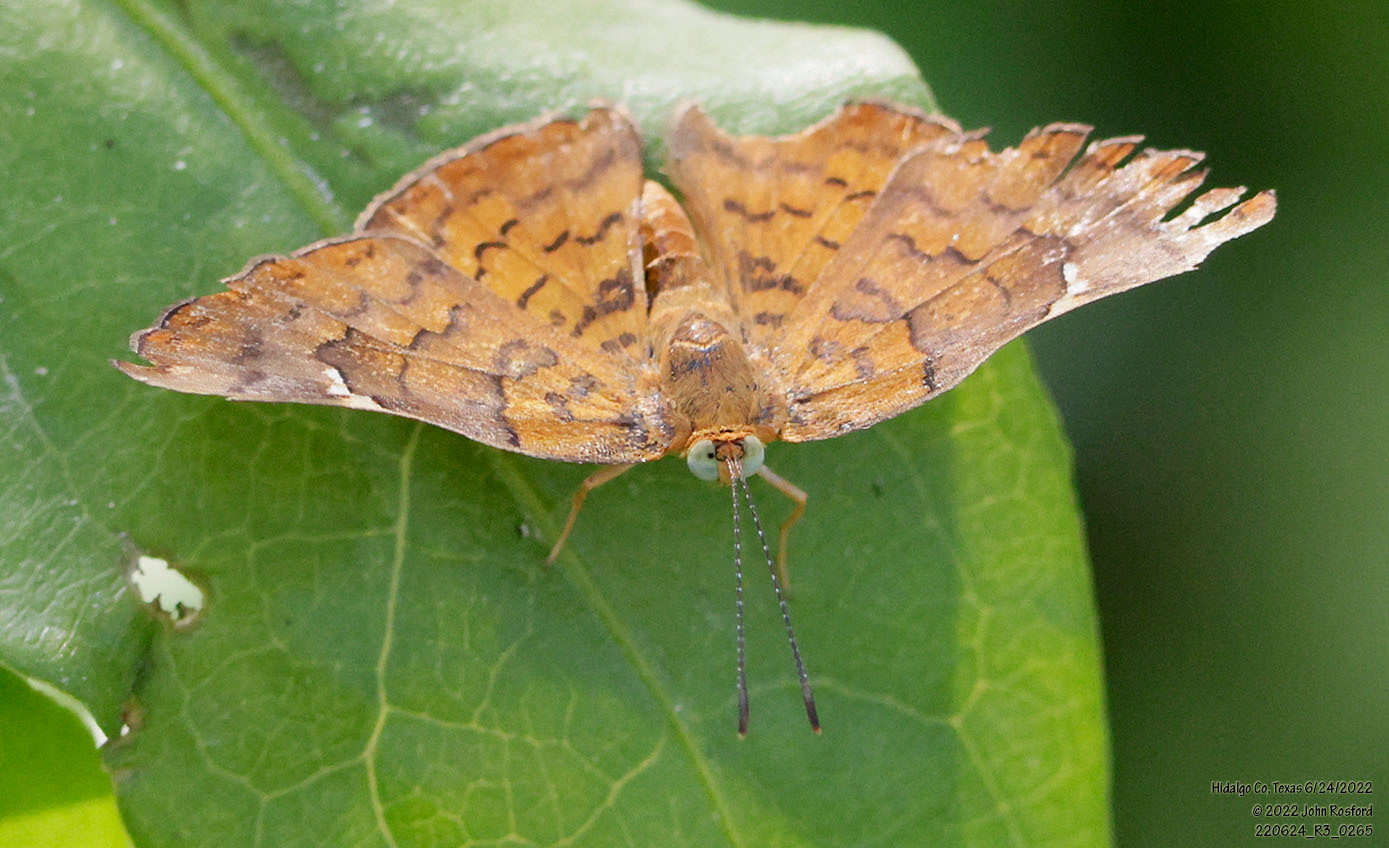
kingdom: Animalia
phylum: Arthropoda
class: Insecta
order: Lepidoptera
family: Riodinidae
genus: Curvie
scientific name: Curvie emesia
